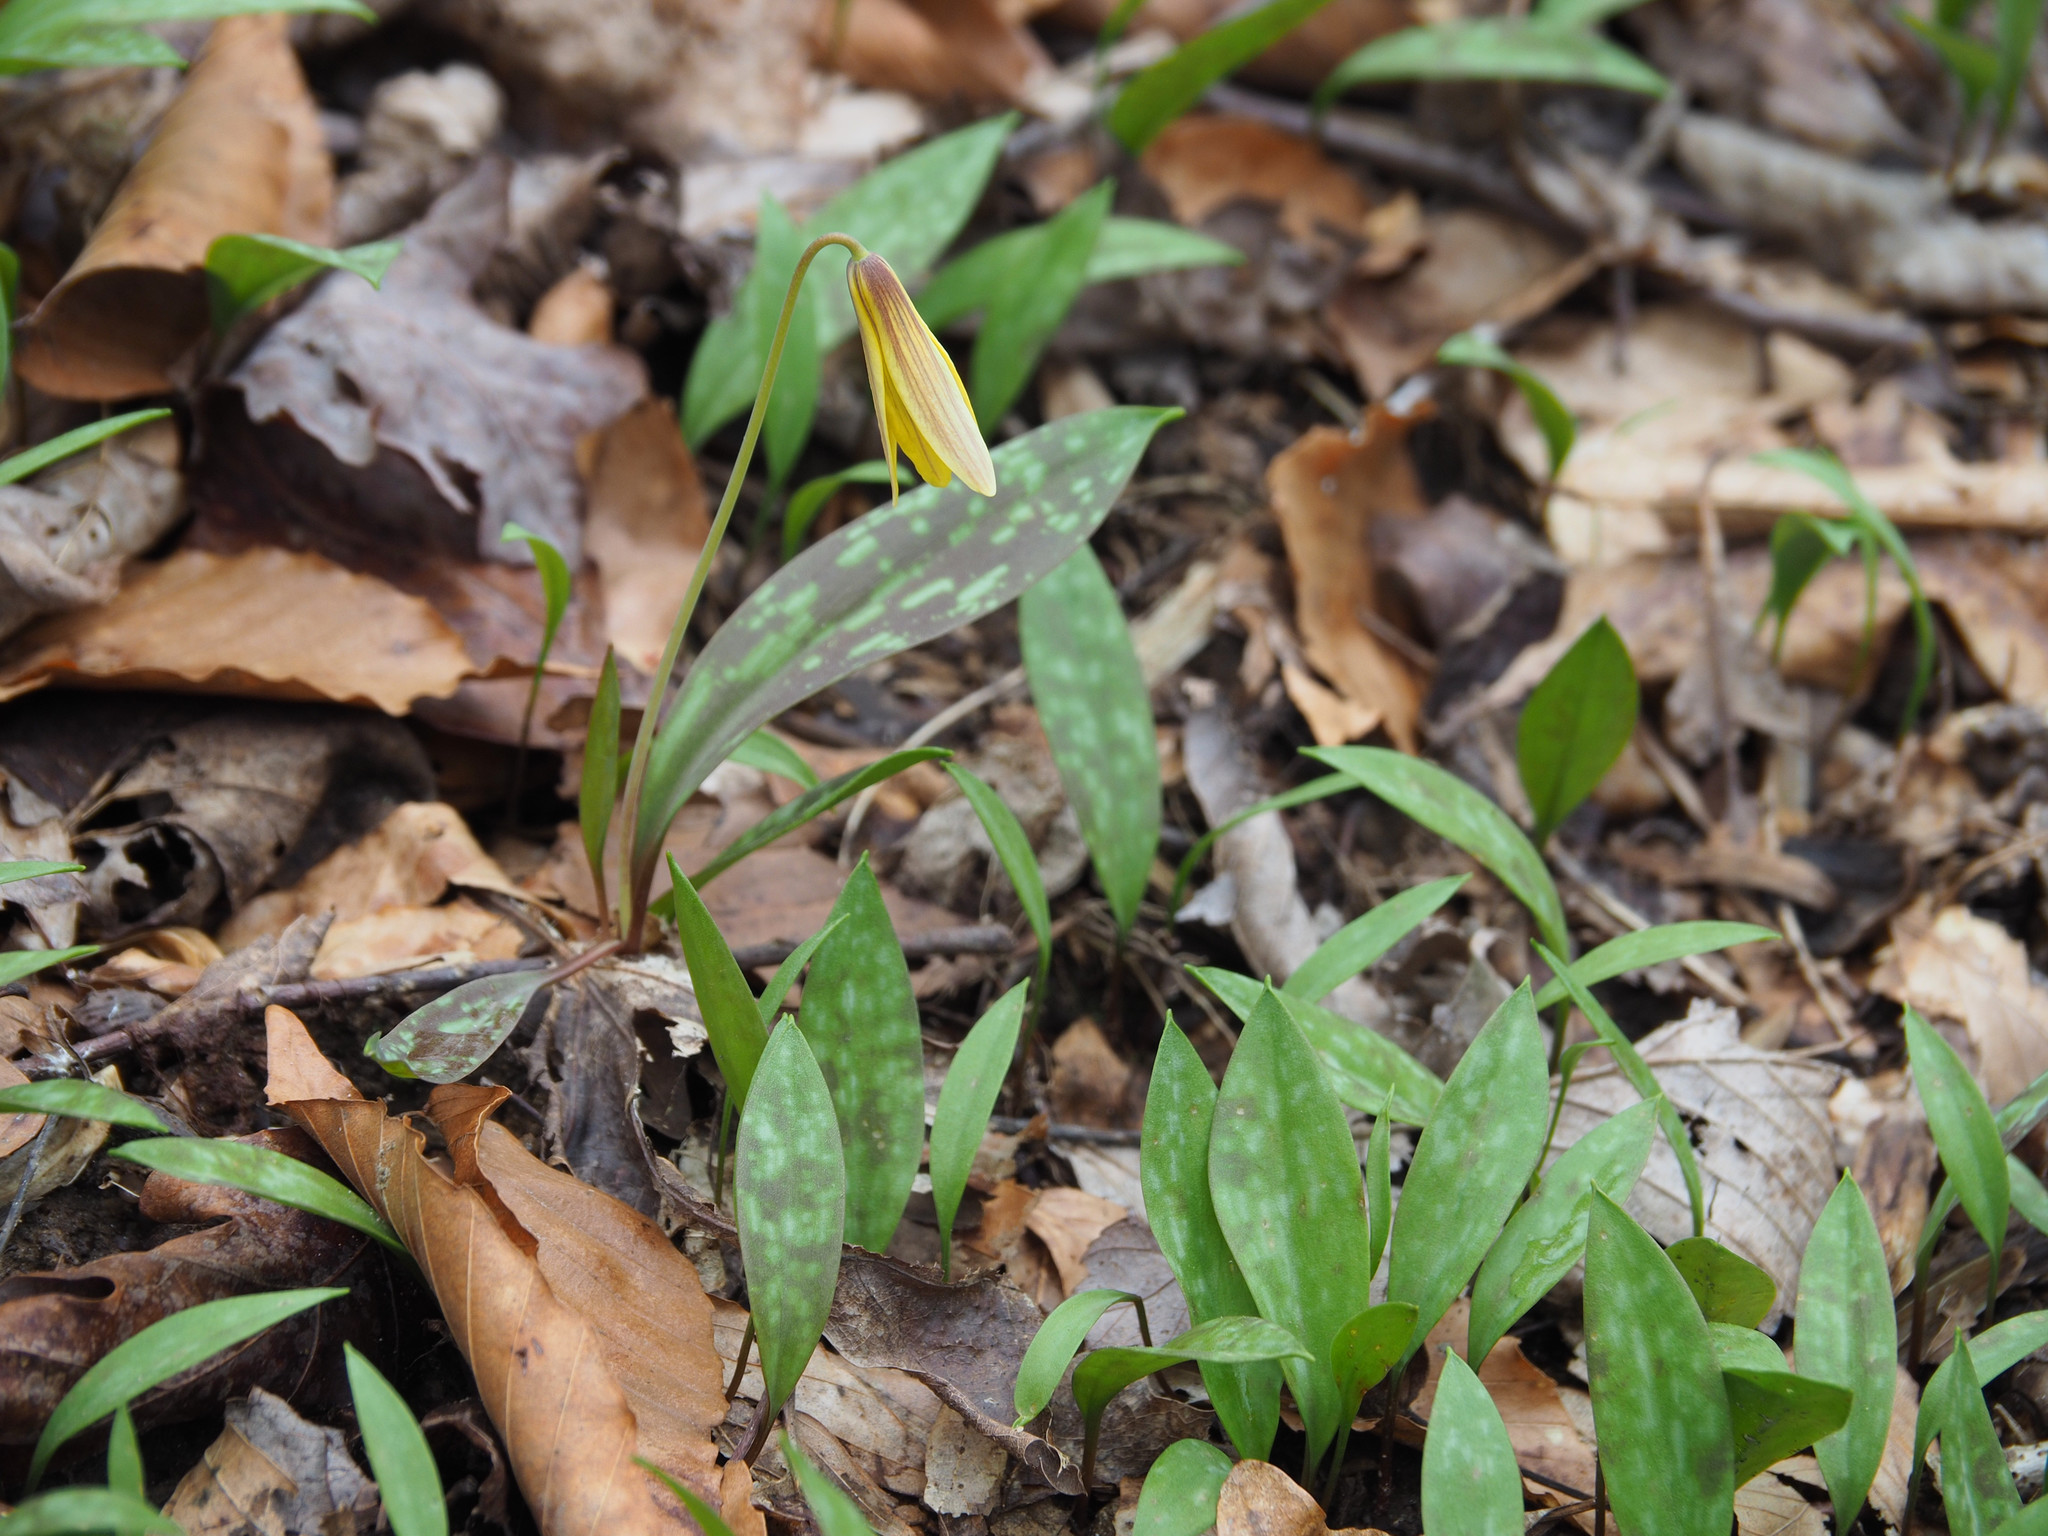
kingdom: Plantae
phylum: Tracheophyta
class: Liliopsida
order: Liliales
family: Liliaceae
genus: Erythronium
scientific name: Erythronium americanum
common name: Yellow adder's-tongue
